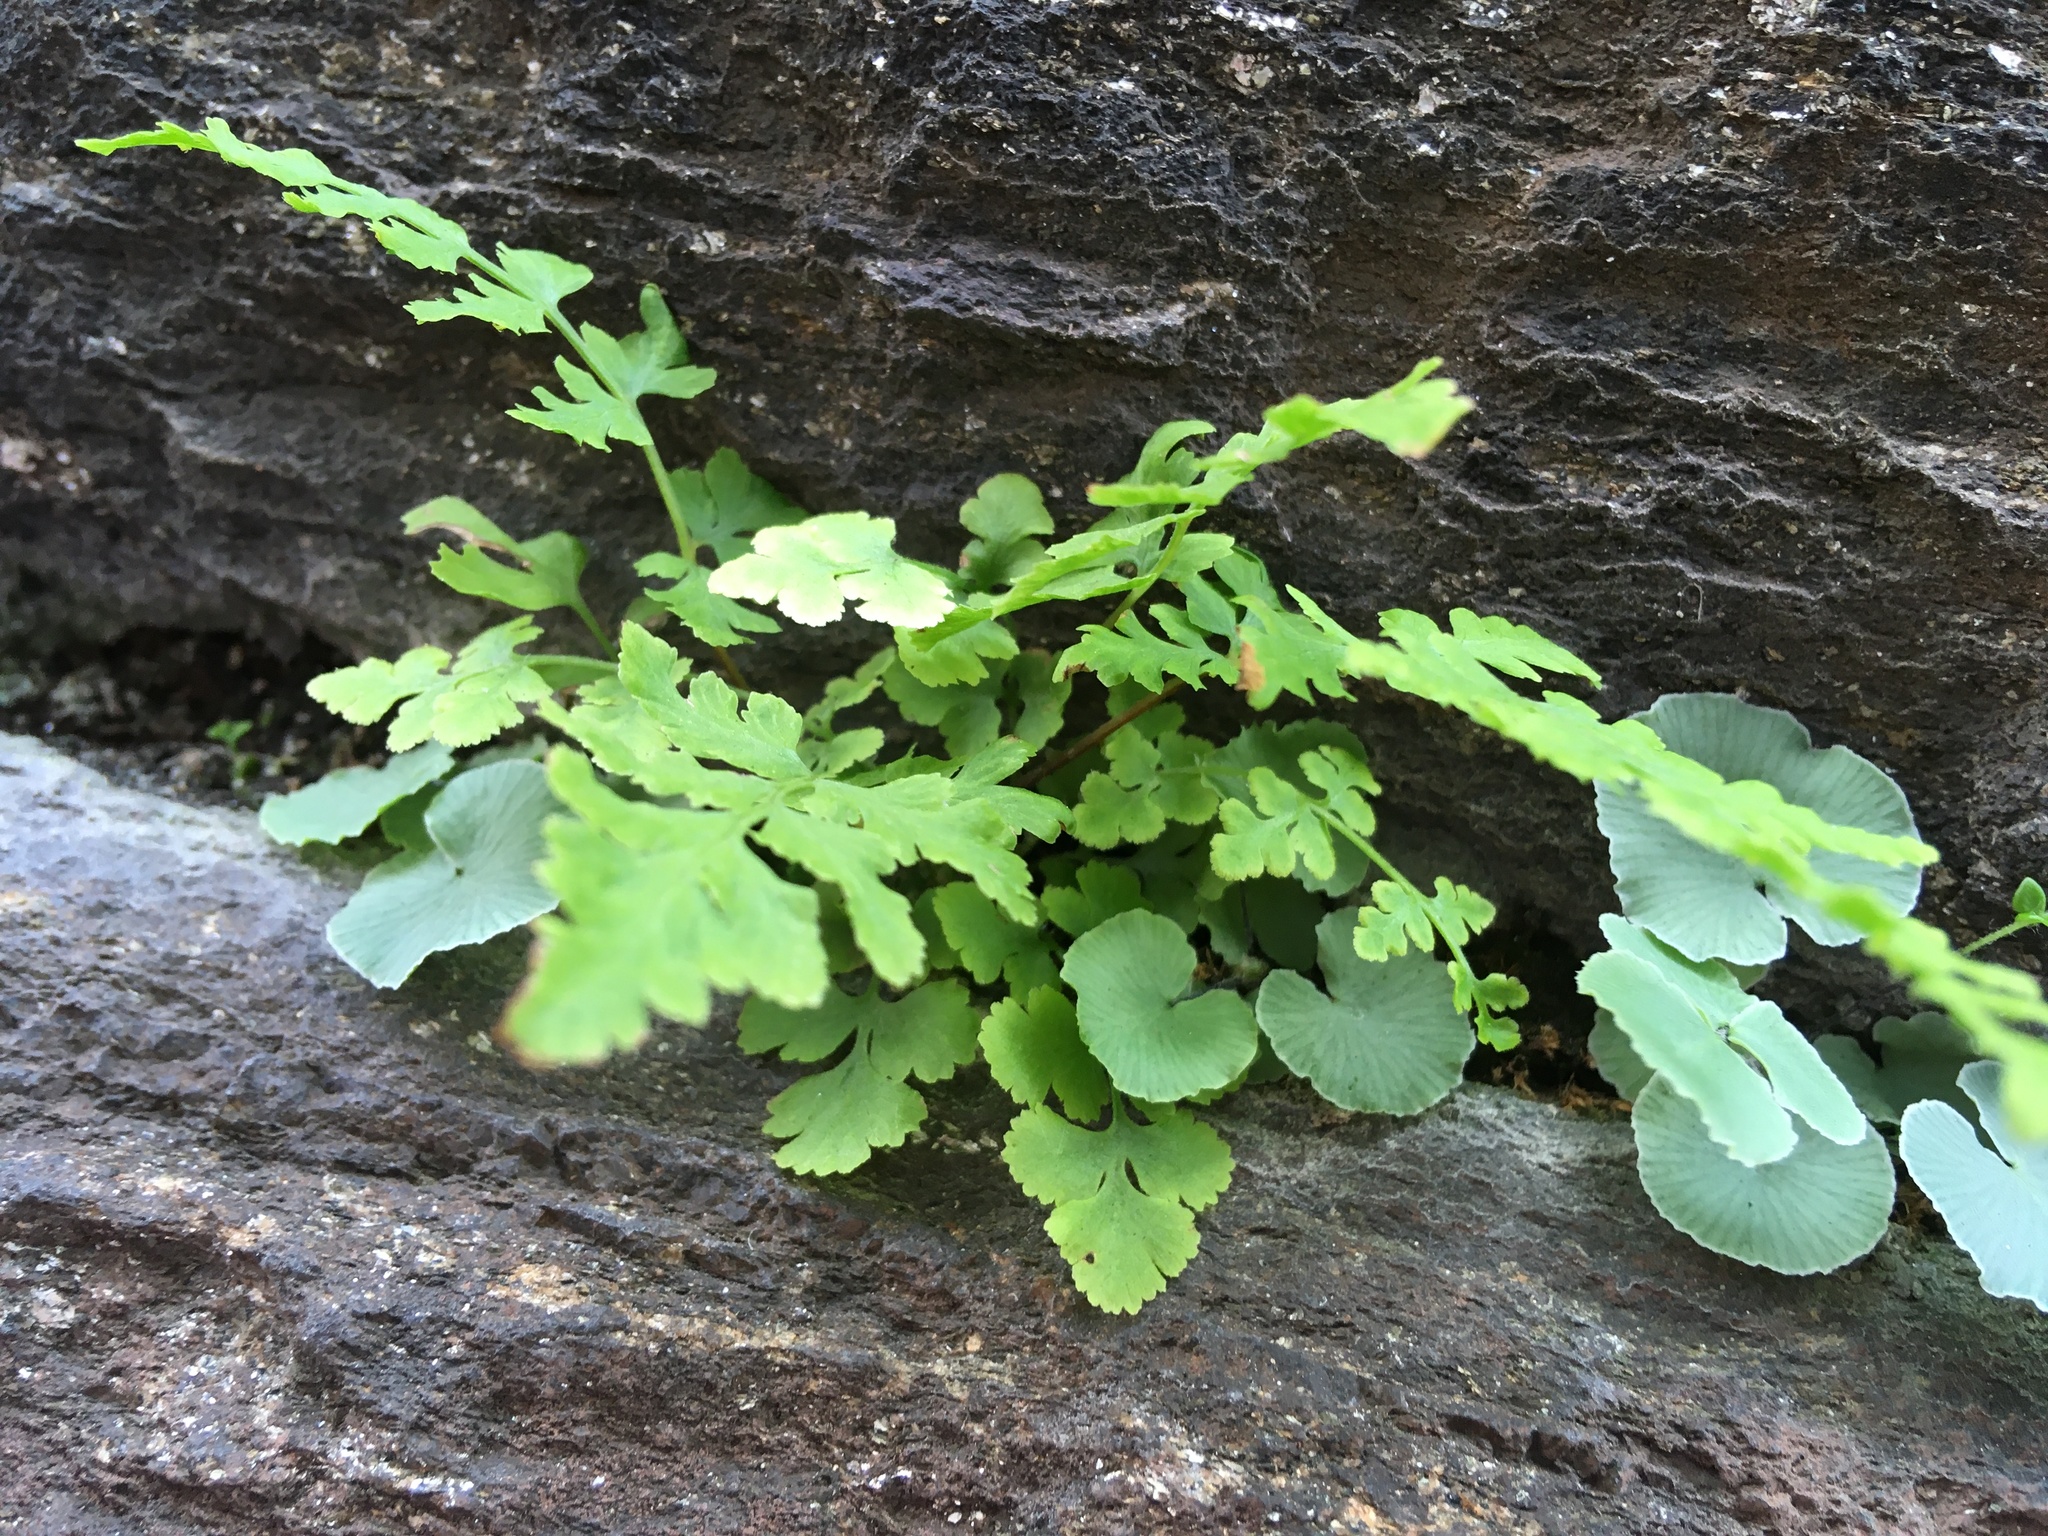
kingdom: Plantae
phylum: Tracheophyta
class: Polypodiopsida
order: Polypodiales
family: Woodsiaceae
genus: Physematium
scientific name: Physematium obtusum
